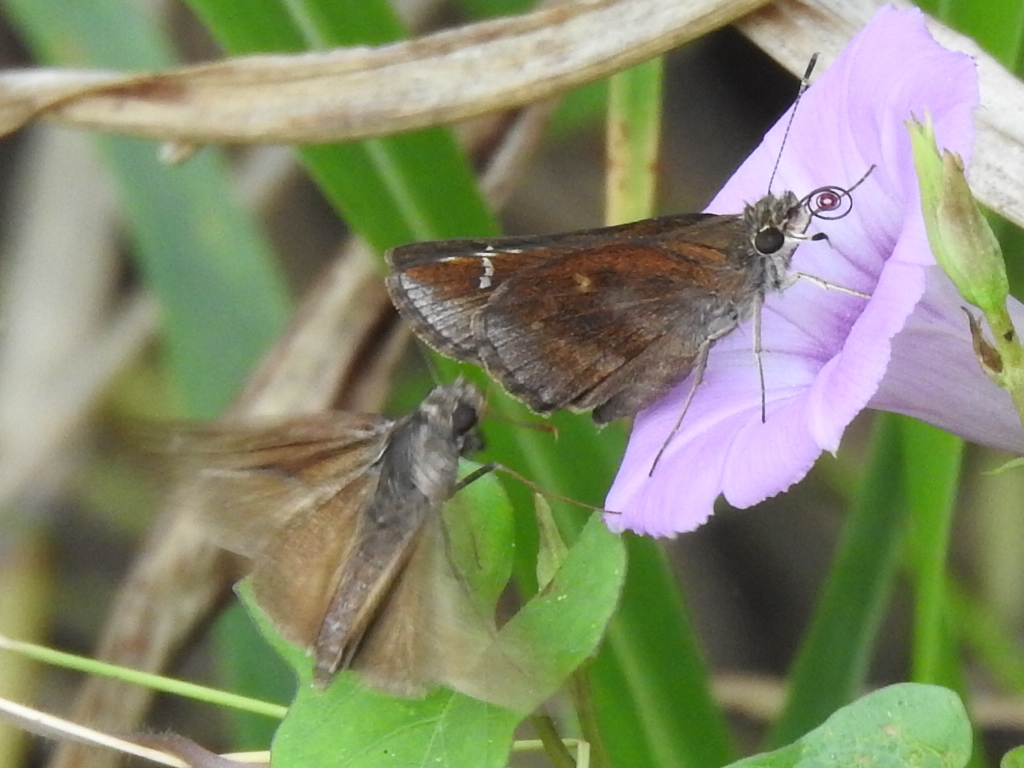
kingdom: Animalia
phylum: Arthropoda
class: Insecta
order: Lepidoptera
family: Hesperiidae
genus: Lerema
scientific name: Lerema accius
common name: Clouded skipper
